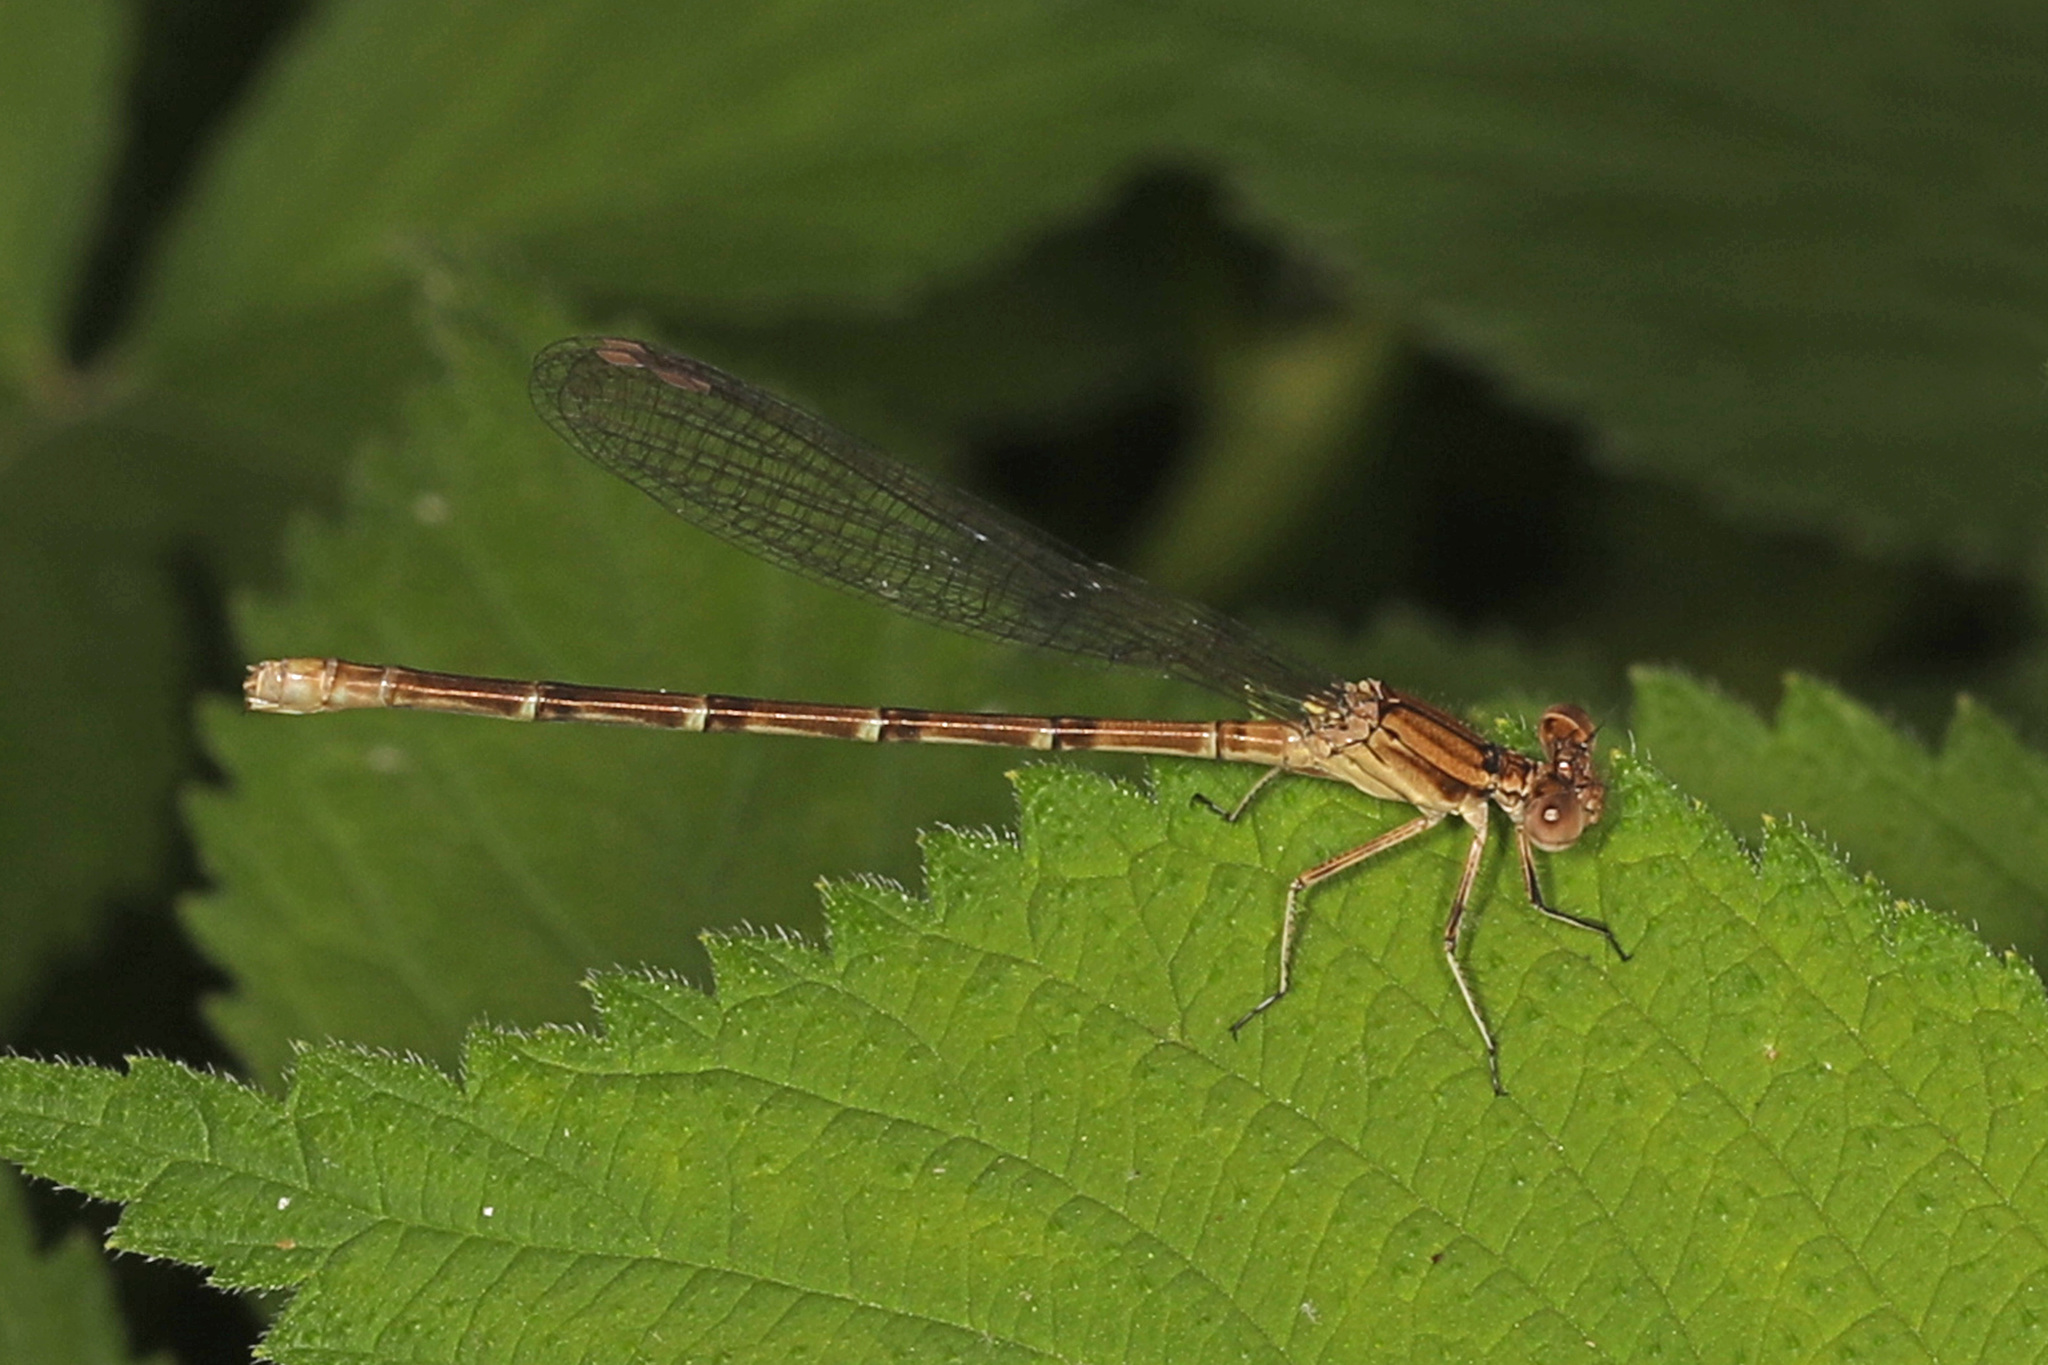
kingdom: Animalia
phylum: Arthropoda
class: Insecta
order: Odonata
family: Coenagrionidae
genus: Argia
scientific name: Argia sedula
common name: Blue-ringed dancer
